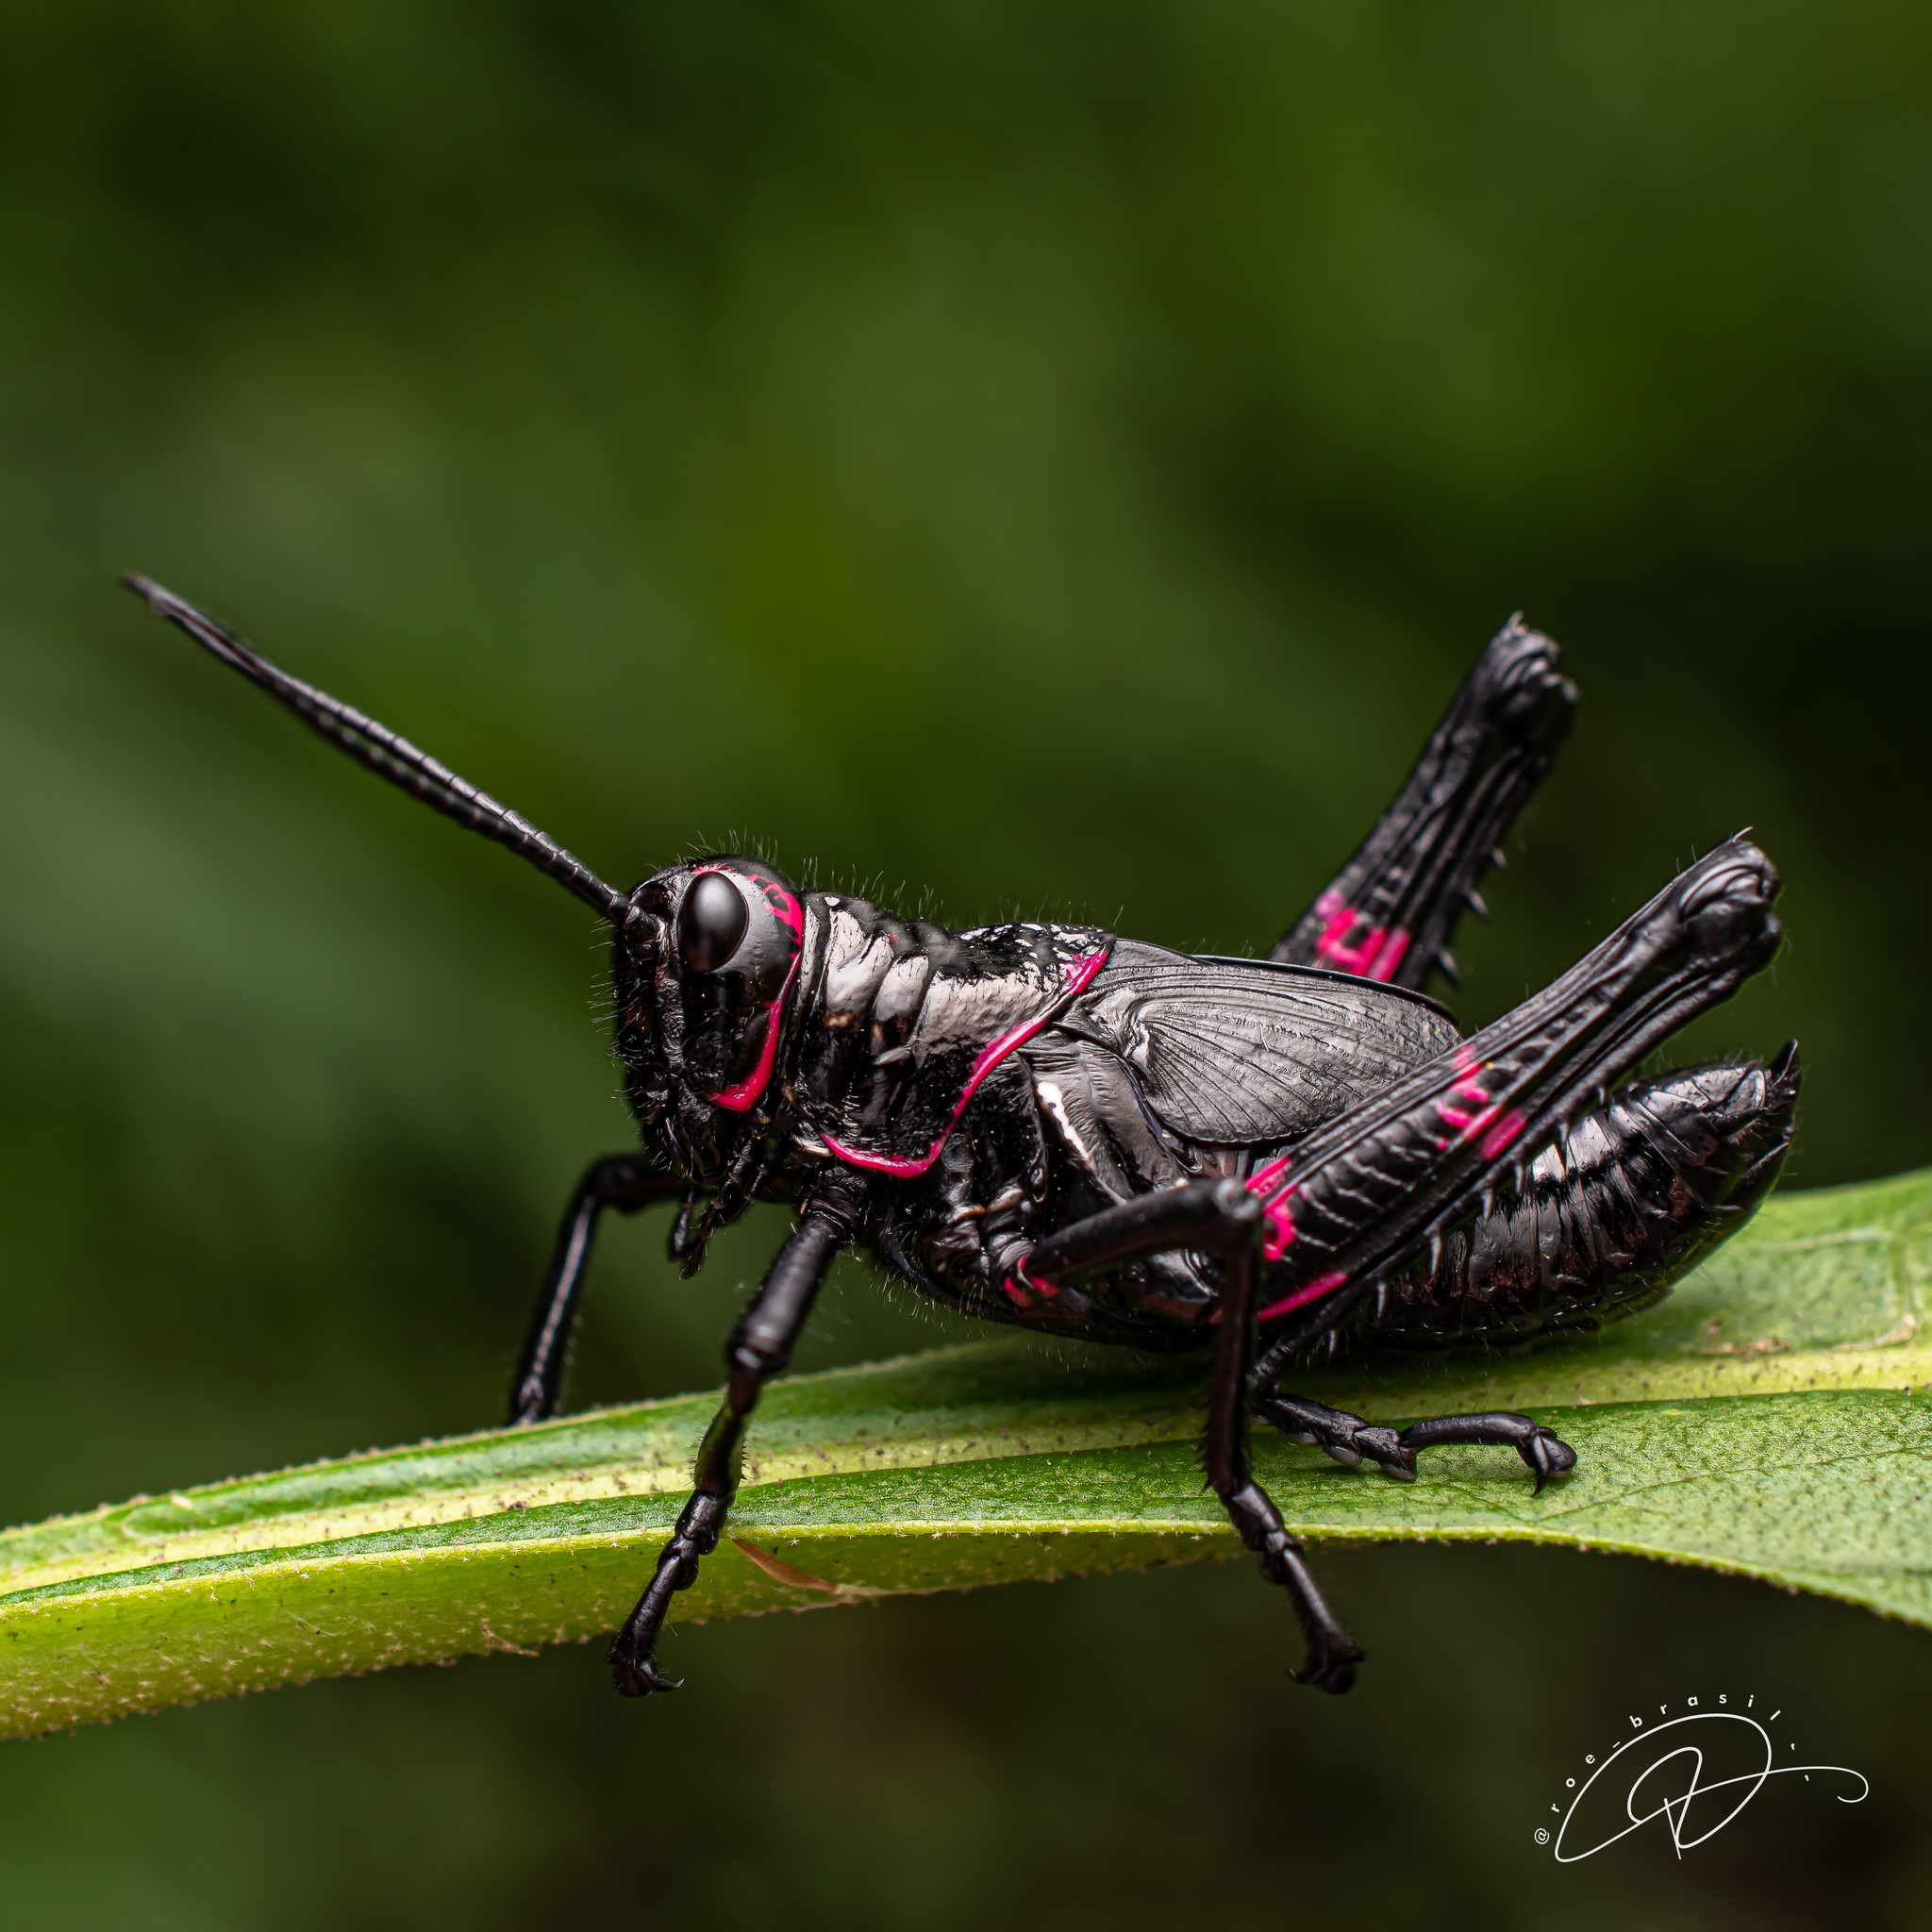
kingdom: Animalia
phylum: Arthropoda
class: Insecta
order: Orthoptera
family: Romaleidae
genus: Chromacris
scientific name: Chromacris speciosa
